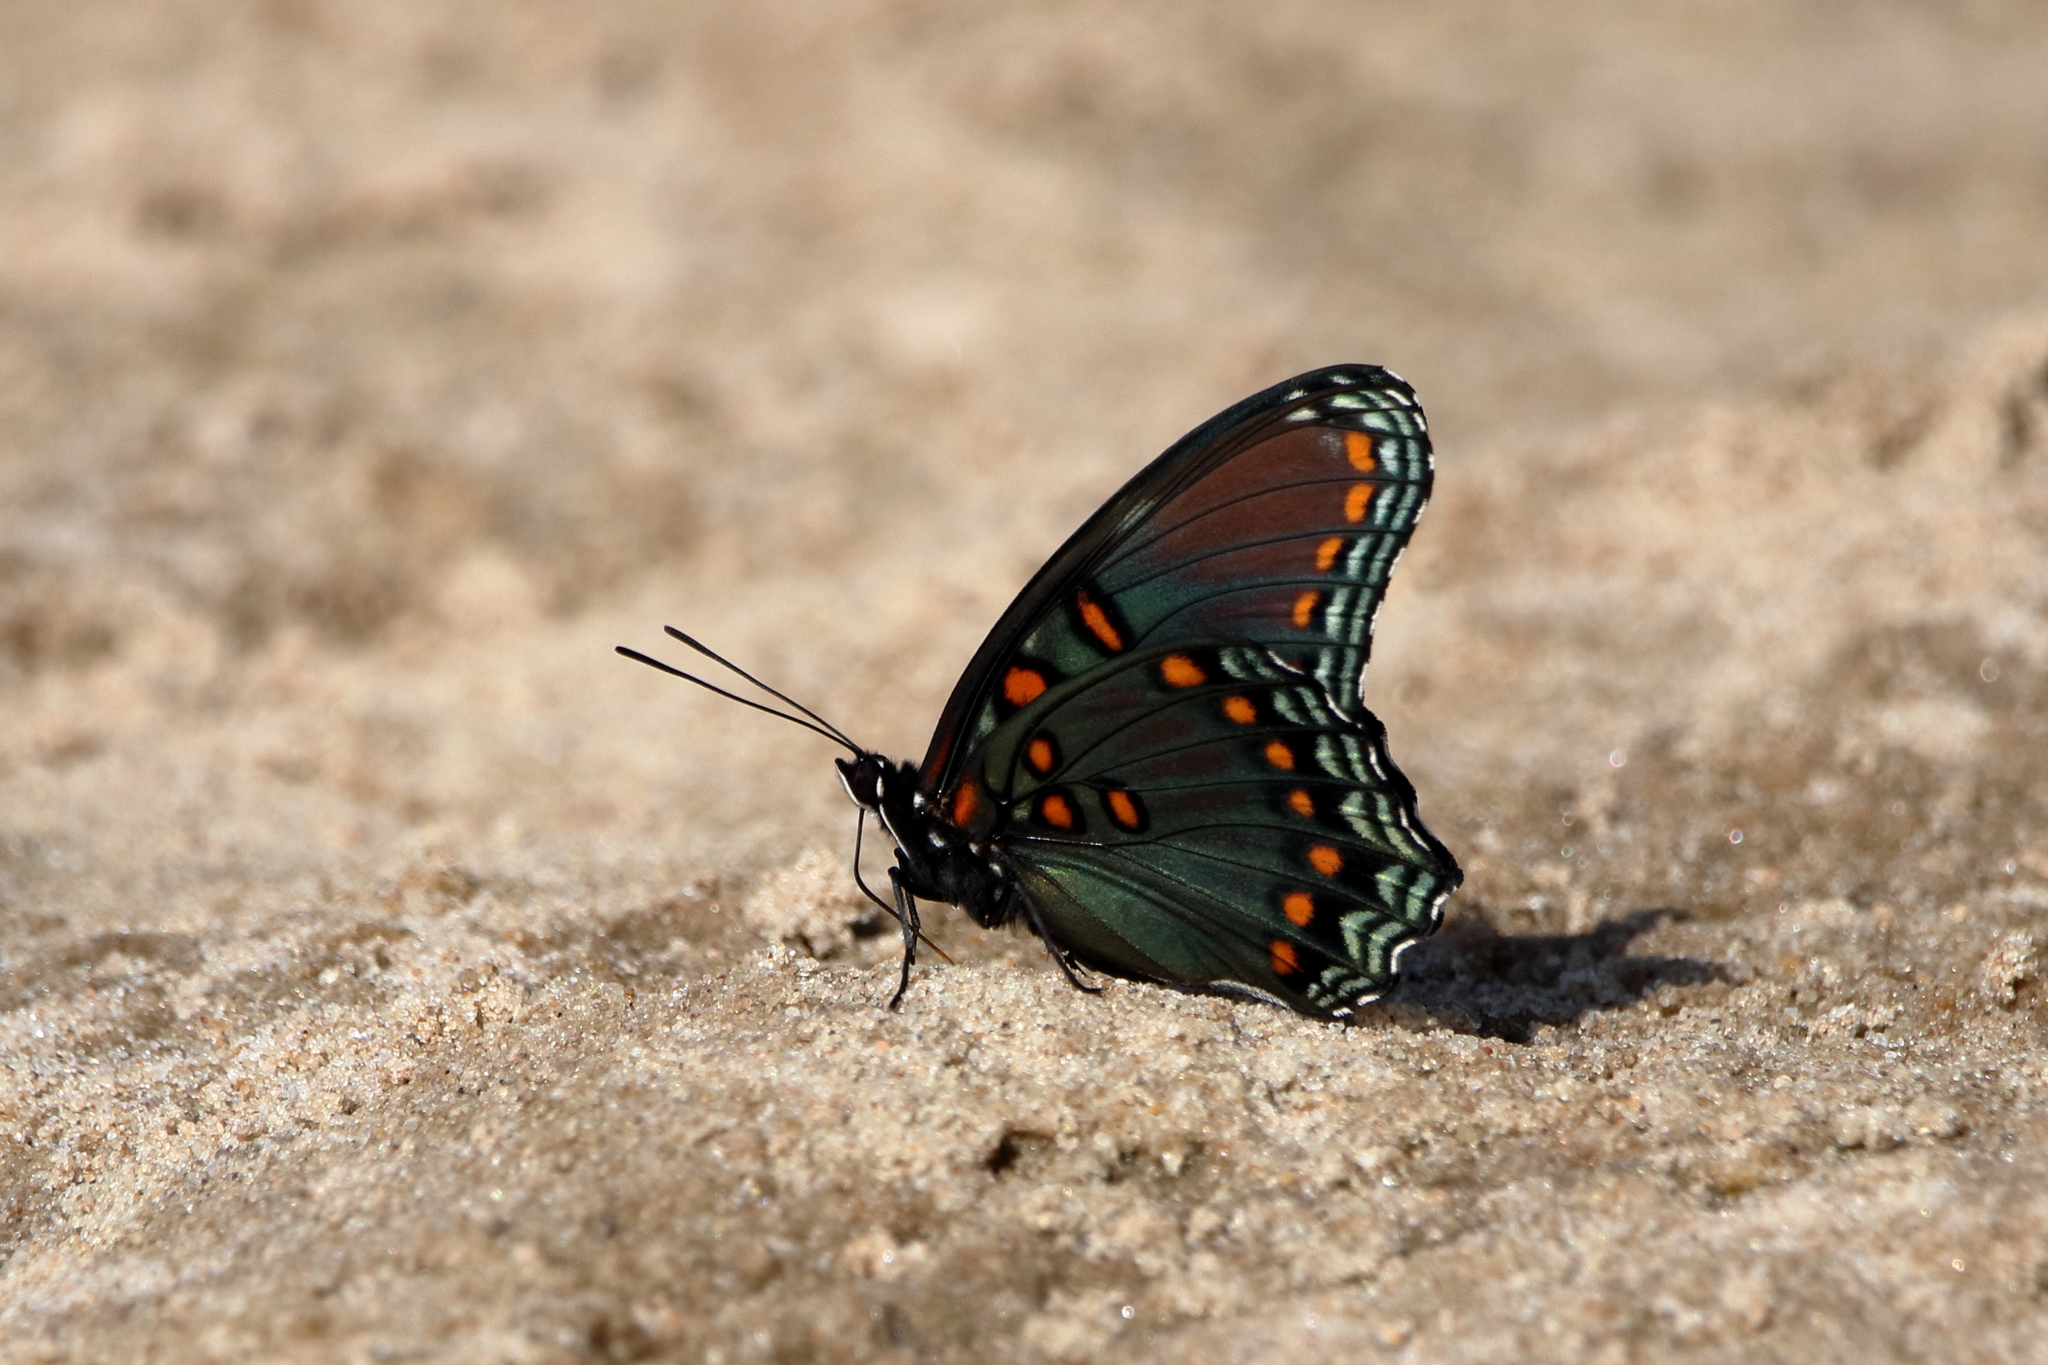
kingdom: Animalia
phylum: Arthropoda
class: Insecta
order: Lepidoptera
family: Nymphalidae
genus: Limenitis
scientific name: Limenitis astyanax
